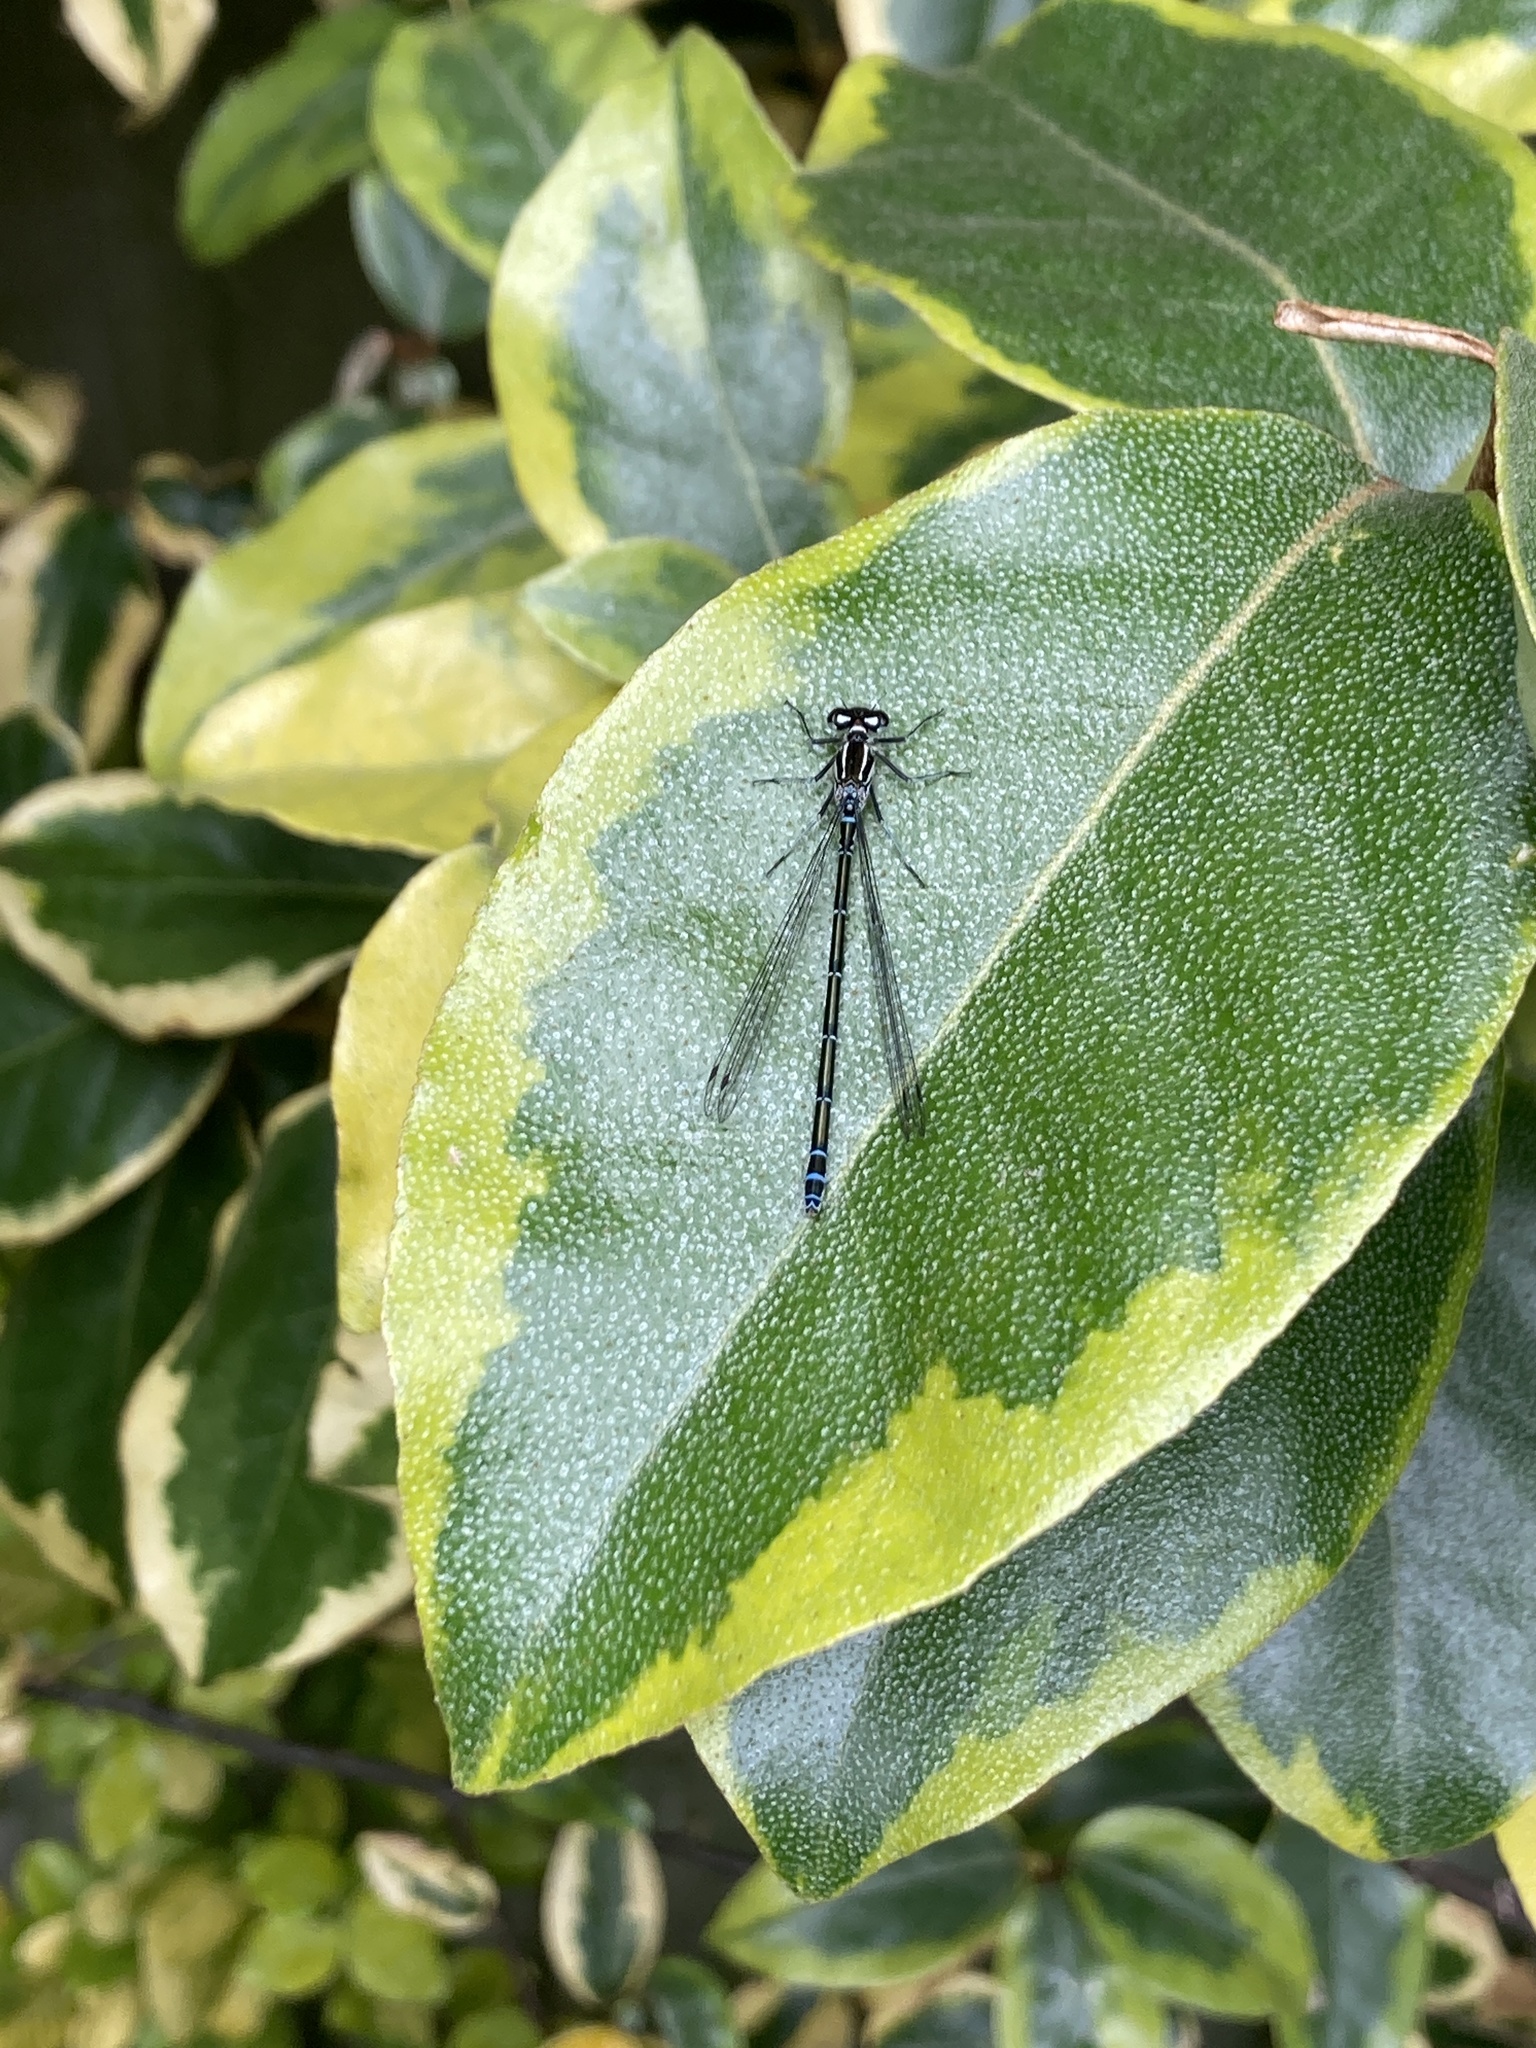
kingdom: Animalia
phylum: Arthropoda
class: Insecta
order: Odonata
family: Coenagrionidae
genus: Coenagrion
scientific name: Coenagrion puella
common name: Azure damselfly
